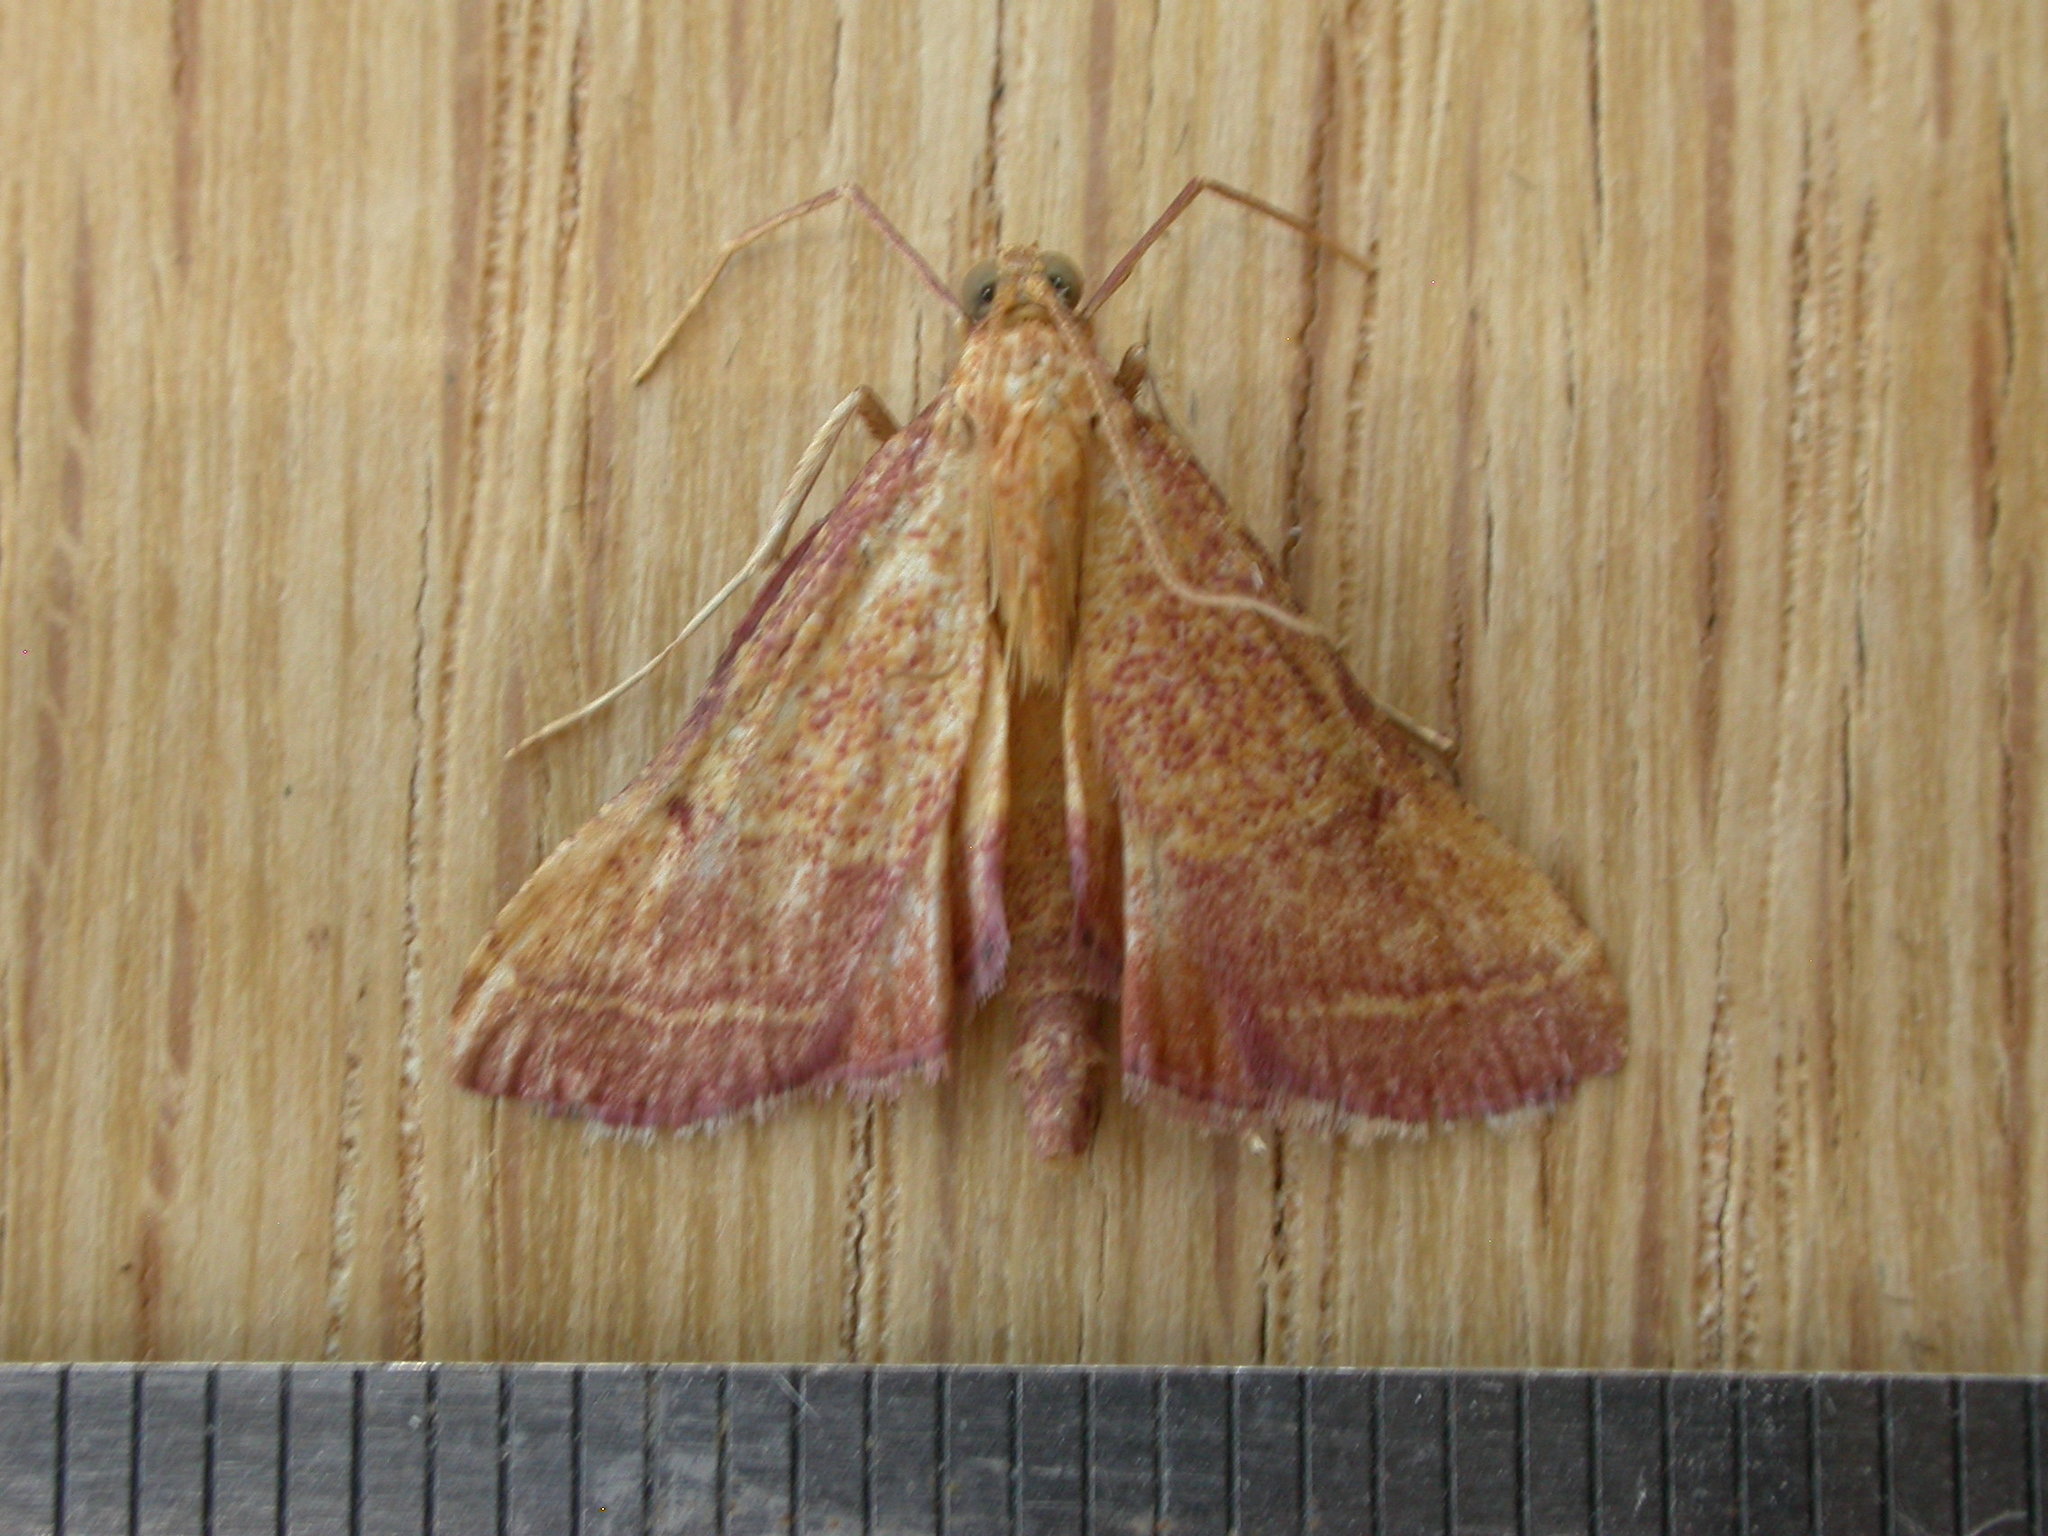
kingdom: Animalia
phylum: Arthropoda
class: Insecta
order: Lepidoptera
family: Pyralidae
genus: Endotricha
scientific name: Endotricha pyrosalis
